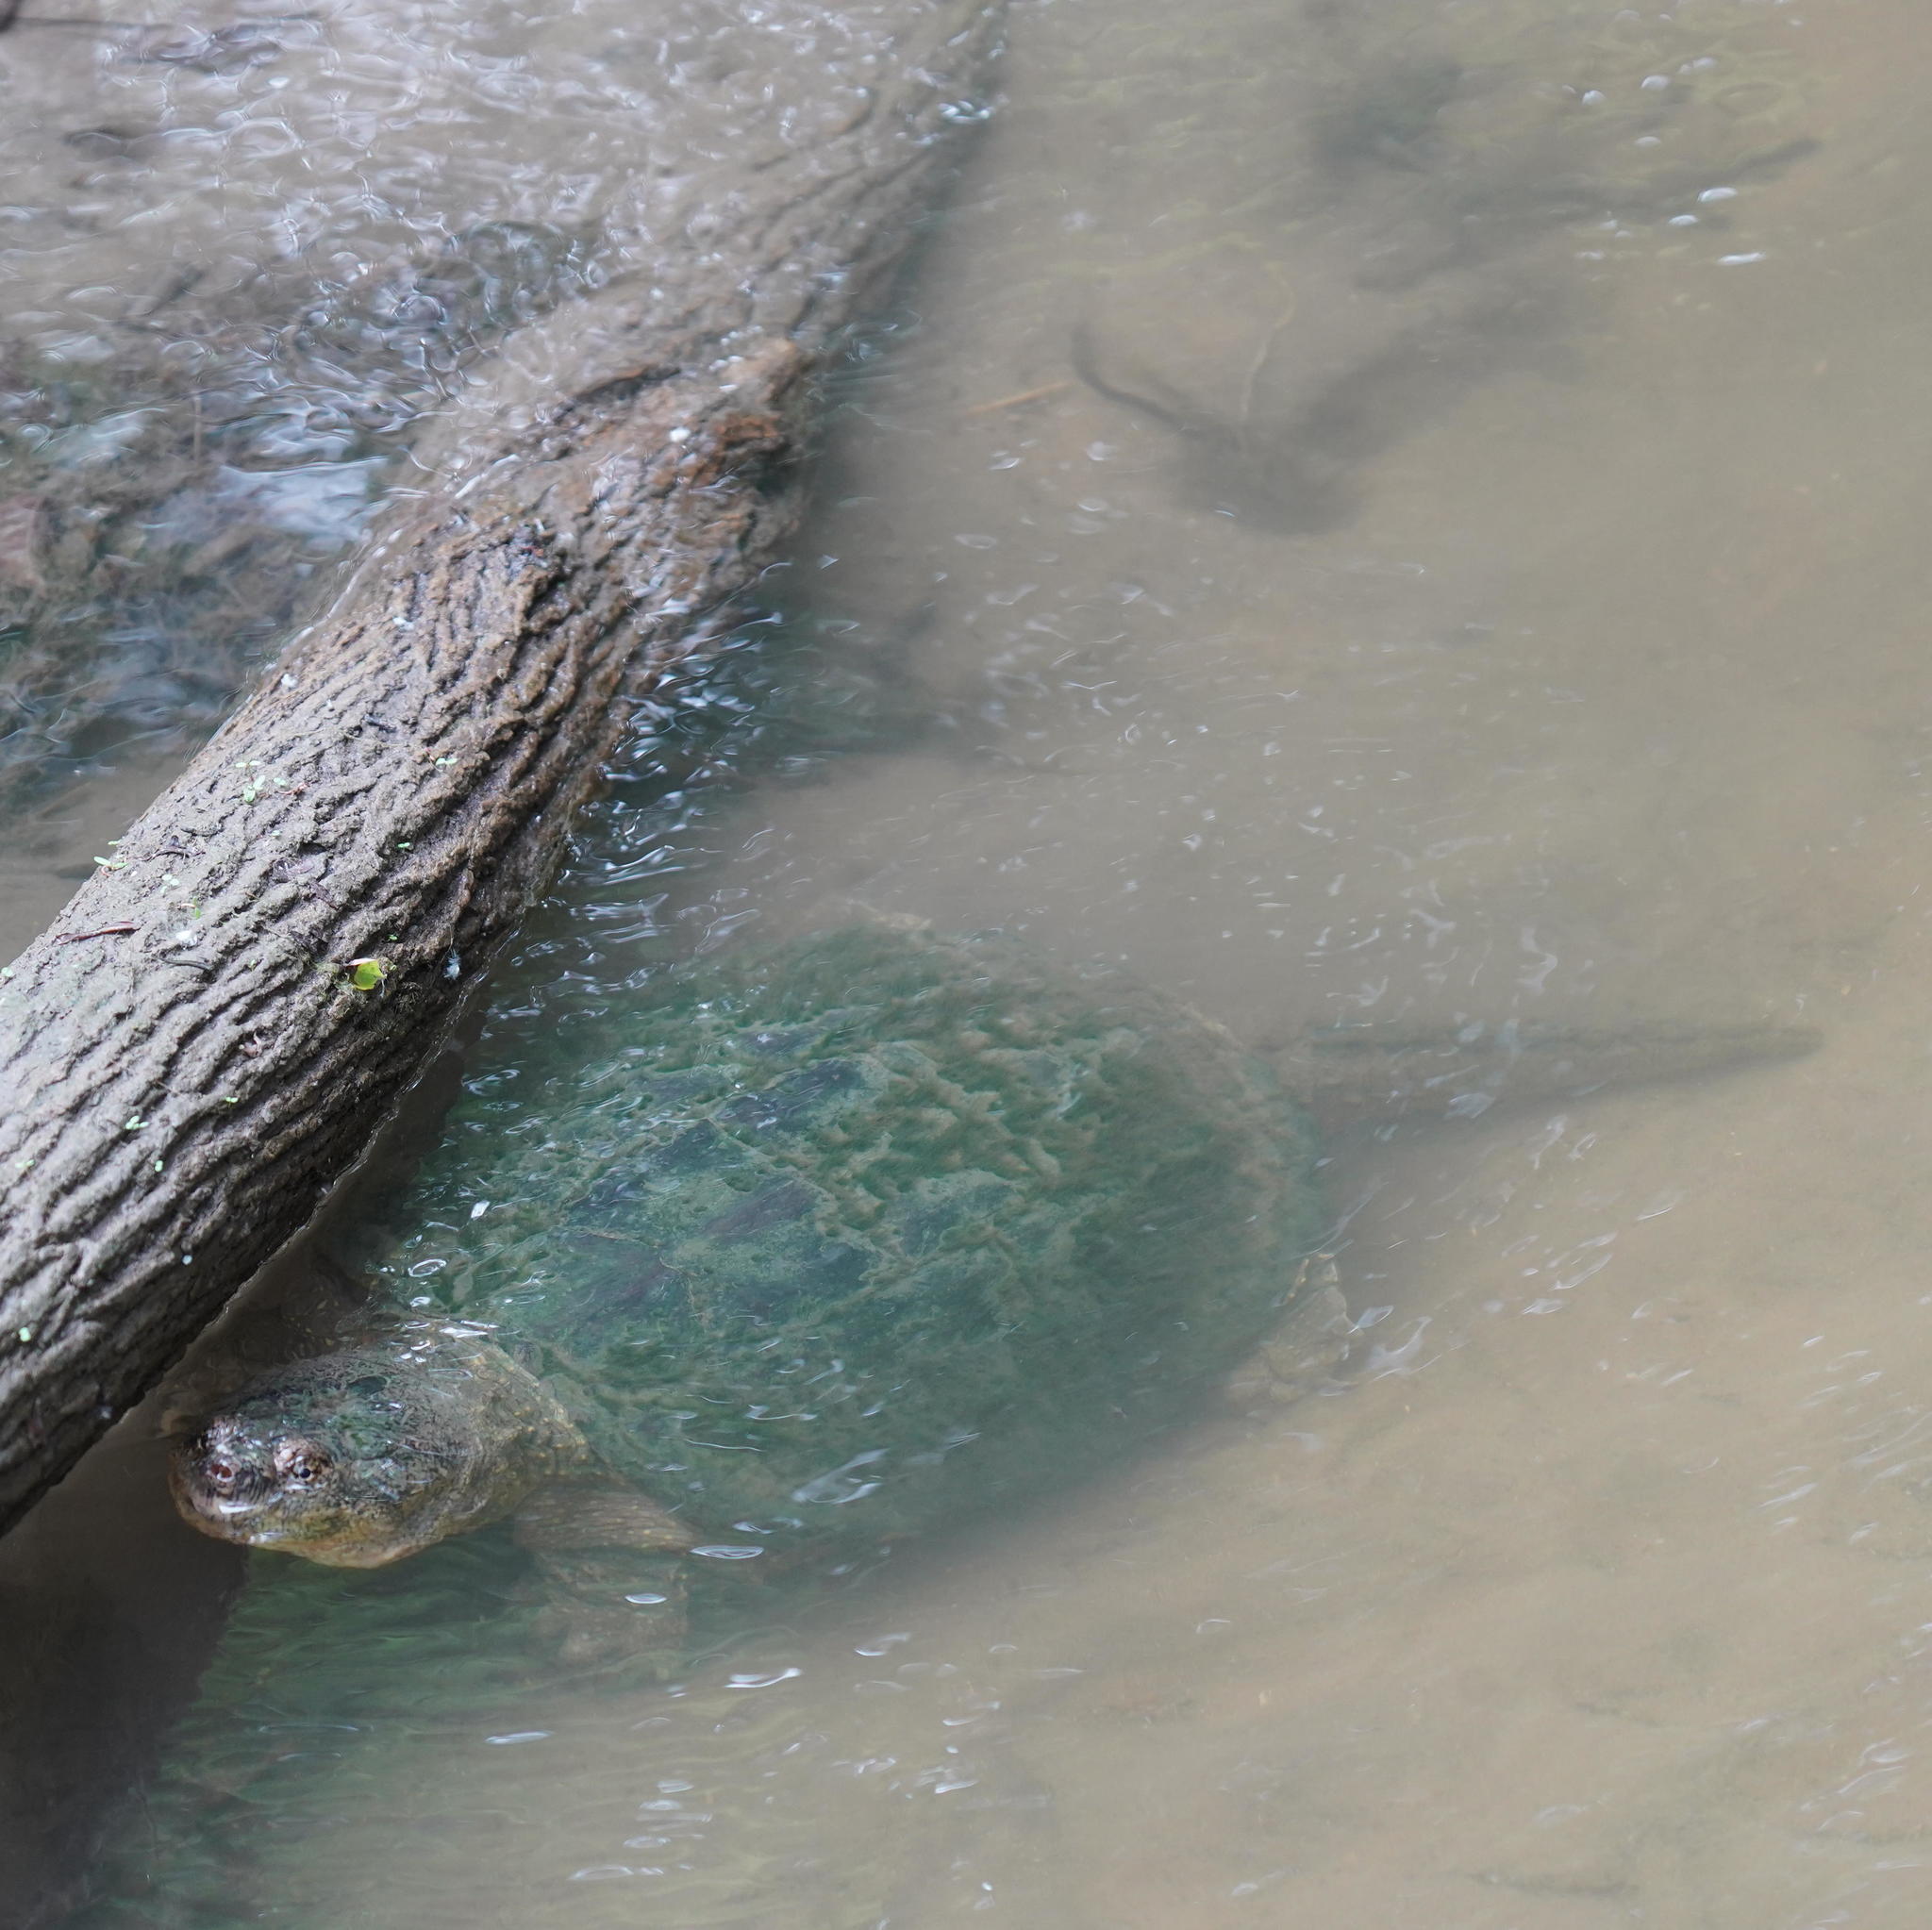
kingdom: Animalia
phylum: Chordata
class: Testudines
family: Chelydridae
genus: Chelydra
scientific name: Chelydra serpentina
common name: Common snapping turtle
